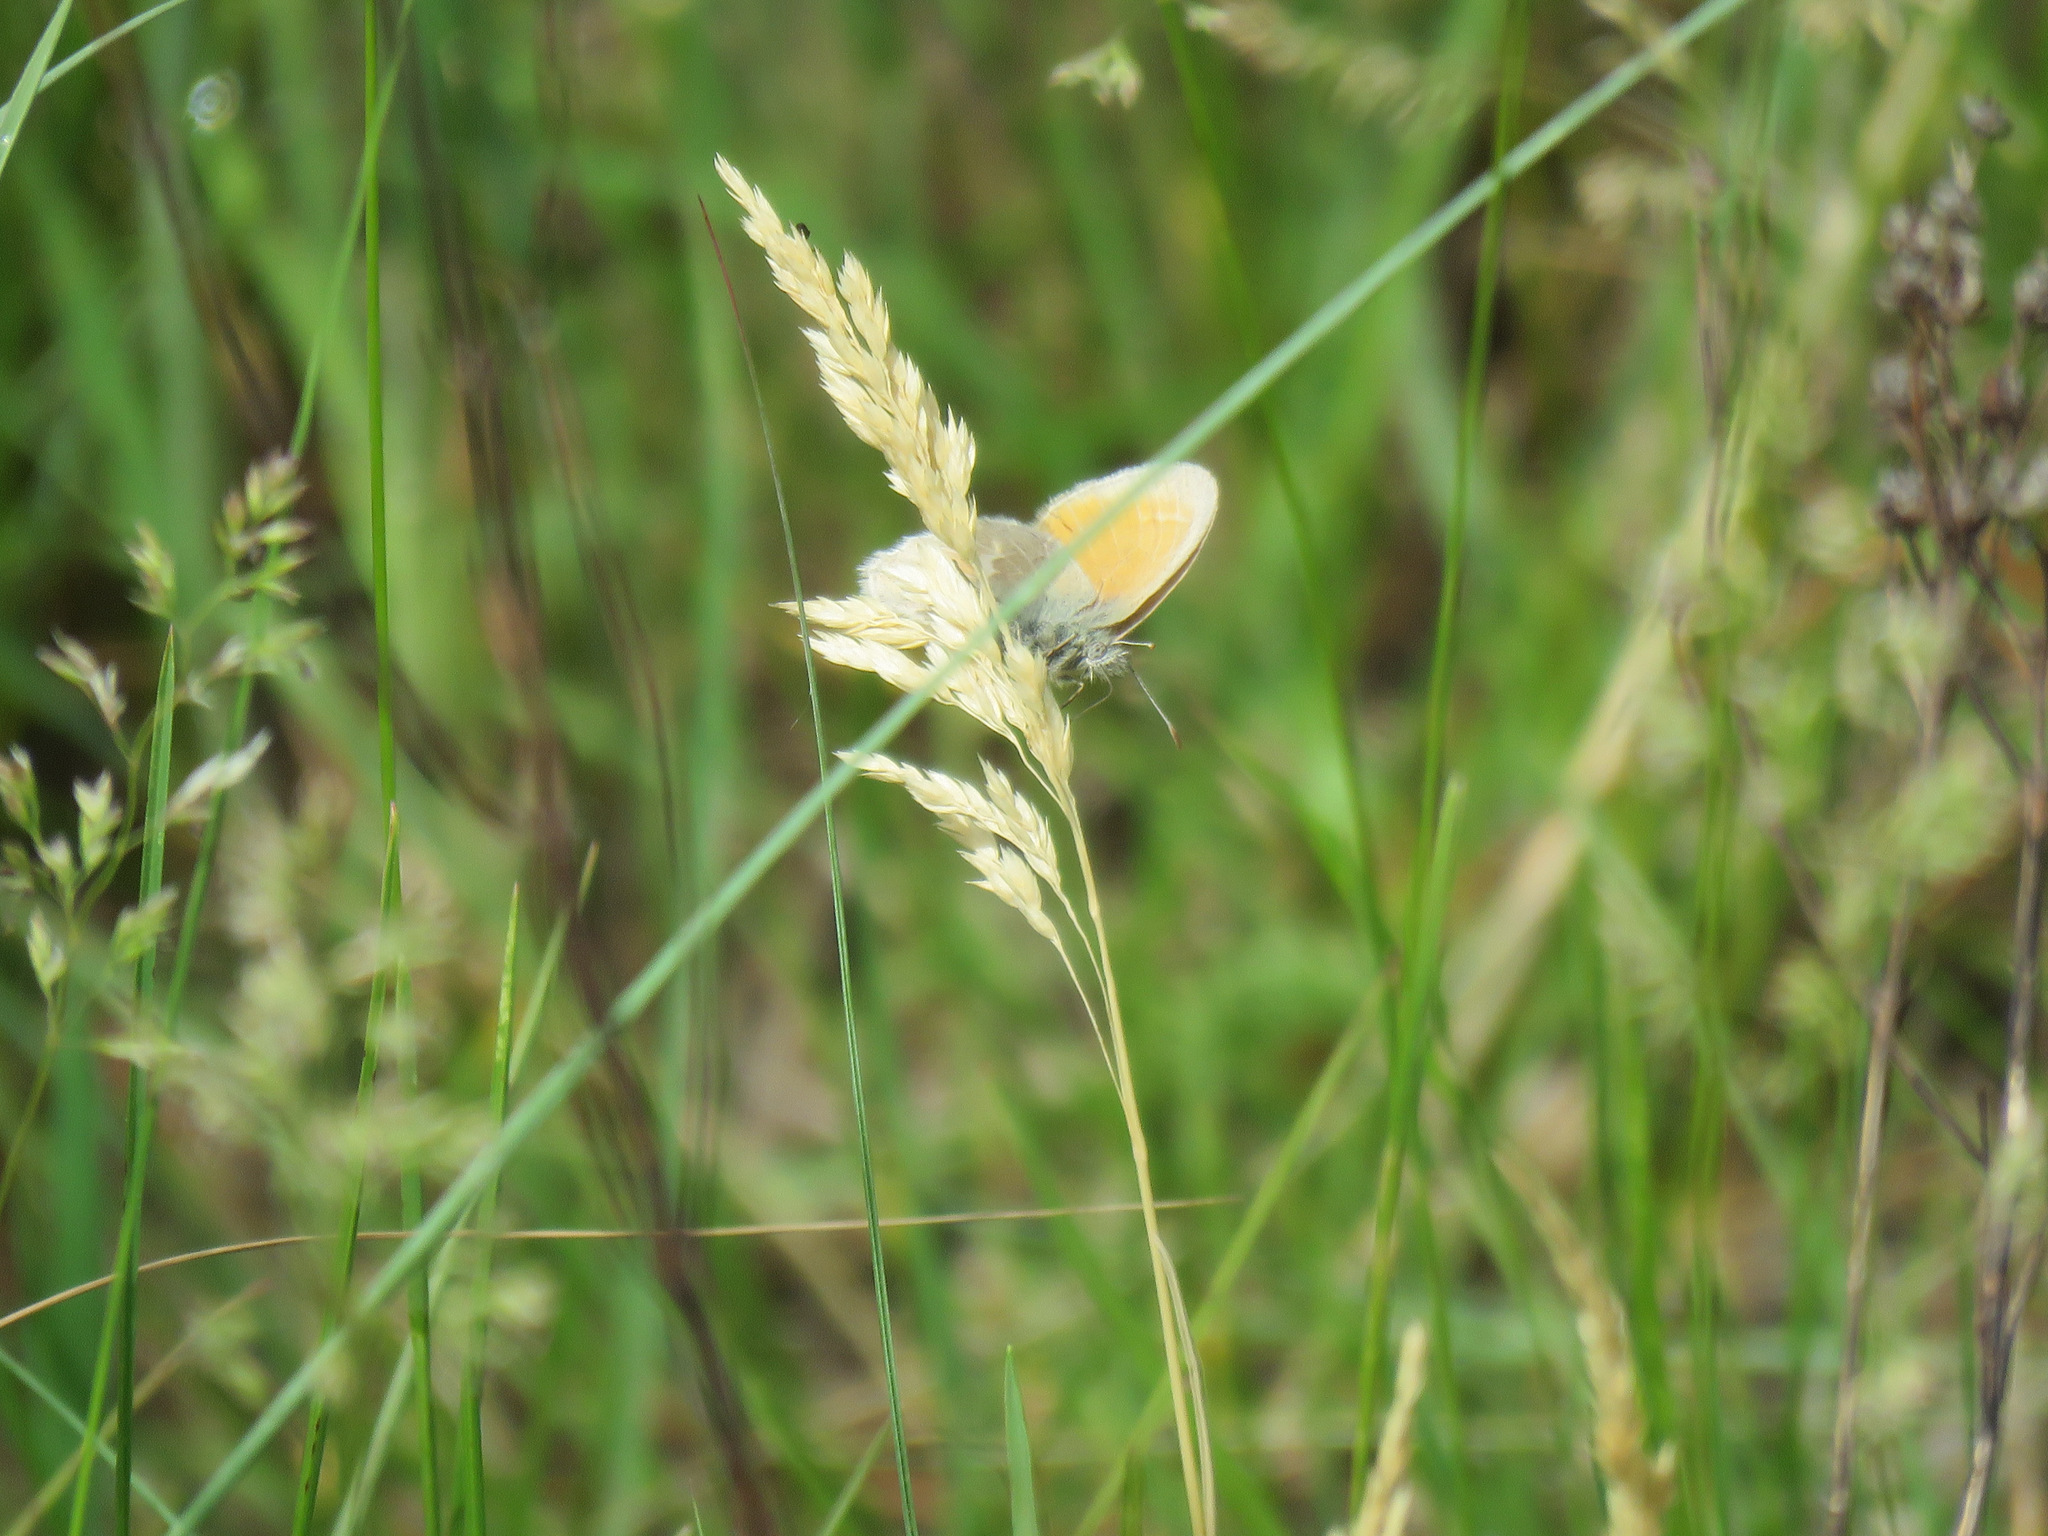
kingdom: Animalia
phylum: Arthropoda
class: Insecta
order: Lepidoptera
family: Nymphalidae
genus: Coenonympha
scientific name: Coenonympha california
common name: Common ringlet
